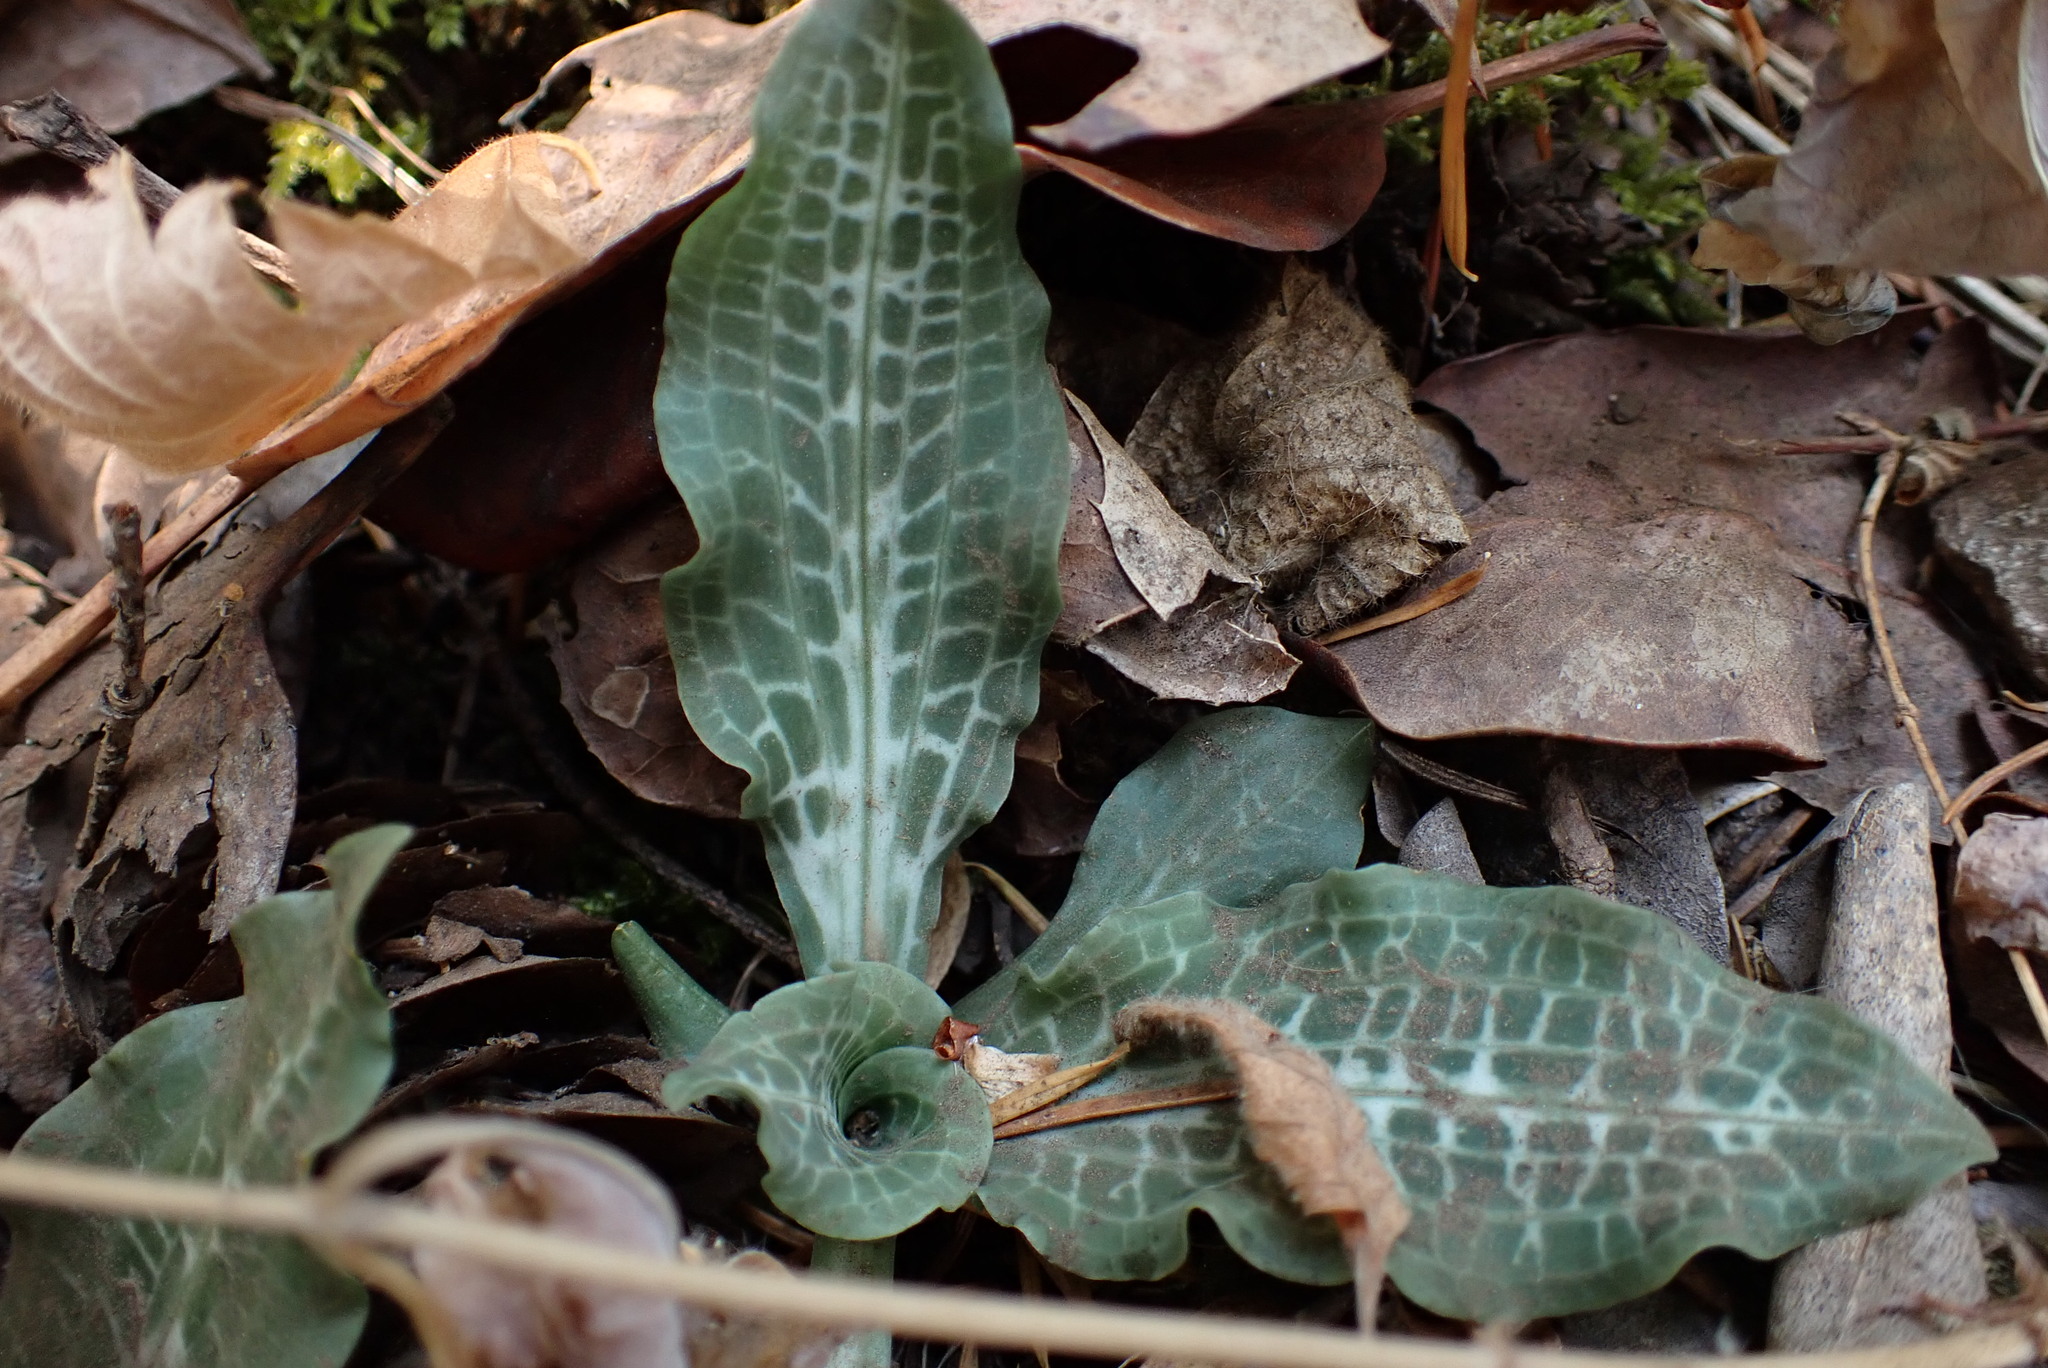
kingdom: Plantae
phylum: Tracheophyta
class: Liliopsida
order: Asparagales
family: Orchidaceae
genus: Goodyera
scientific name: Goodyera oblongifolia
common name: Giant rattlesnake-plantain
